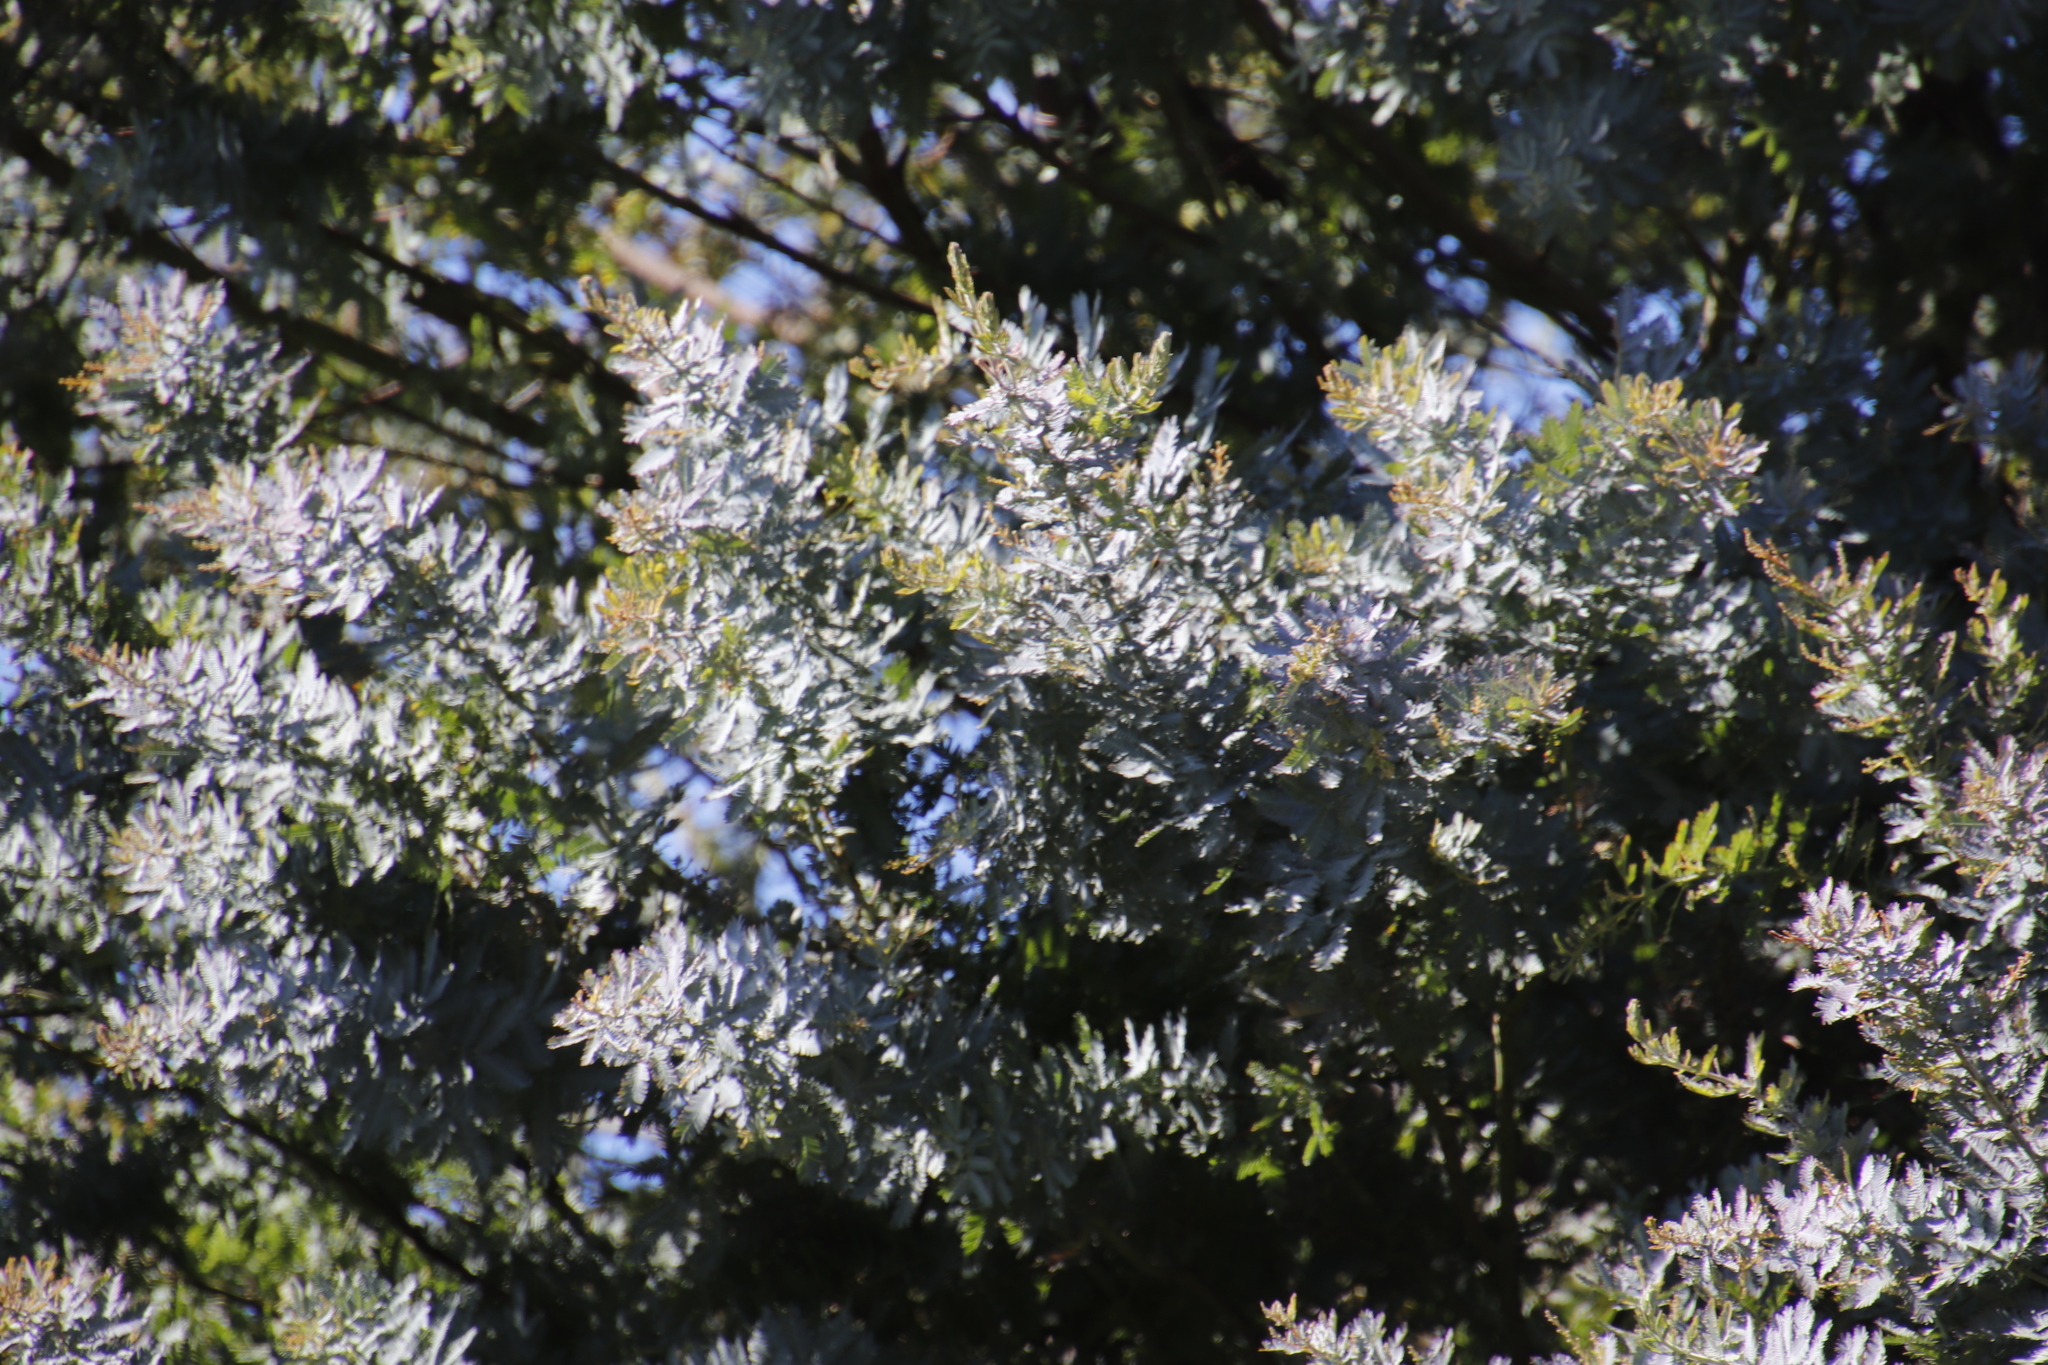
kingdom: Plantae
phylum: Tracheophyta
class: Magnoliopsida
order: Fabales
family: Fabaceae
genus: Acacia
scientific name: Acacia baileyana
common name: Cootamundra wattle
